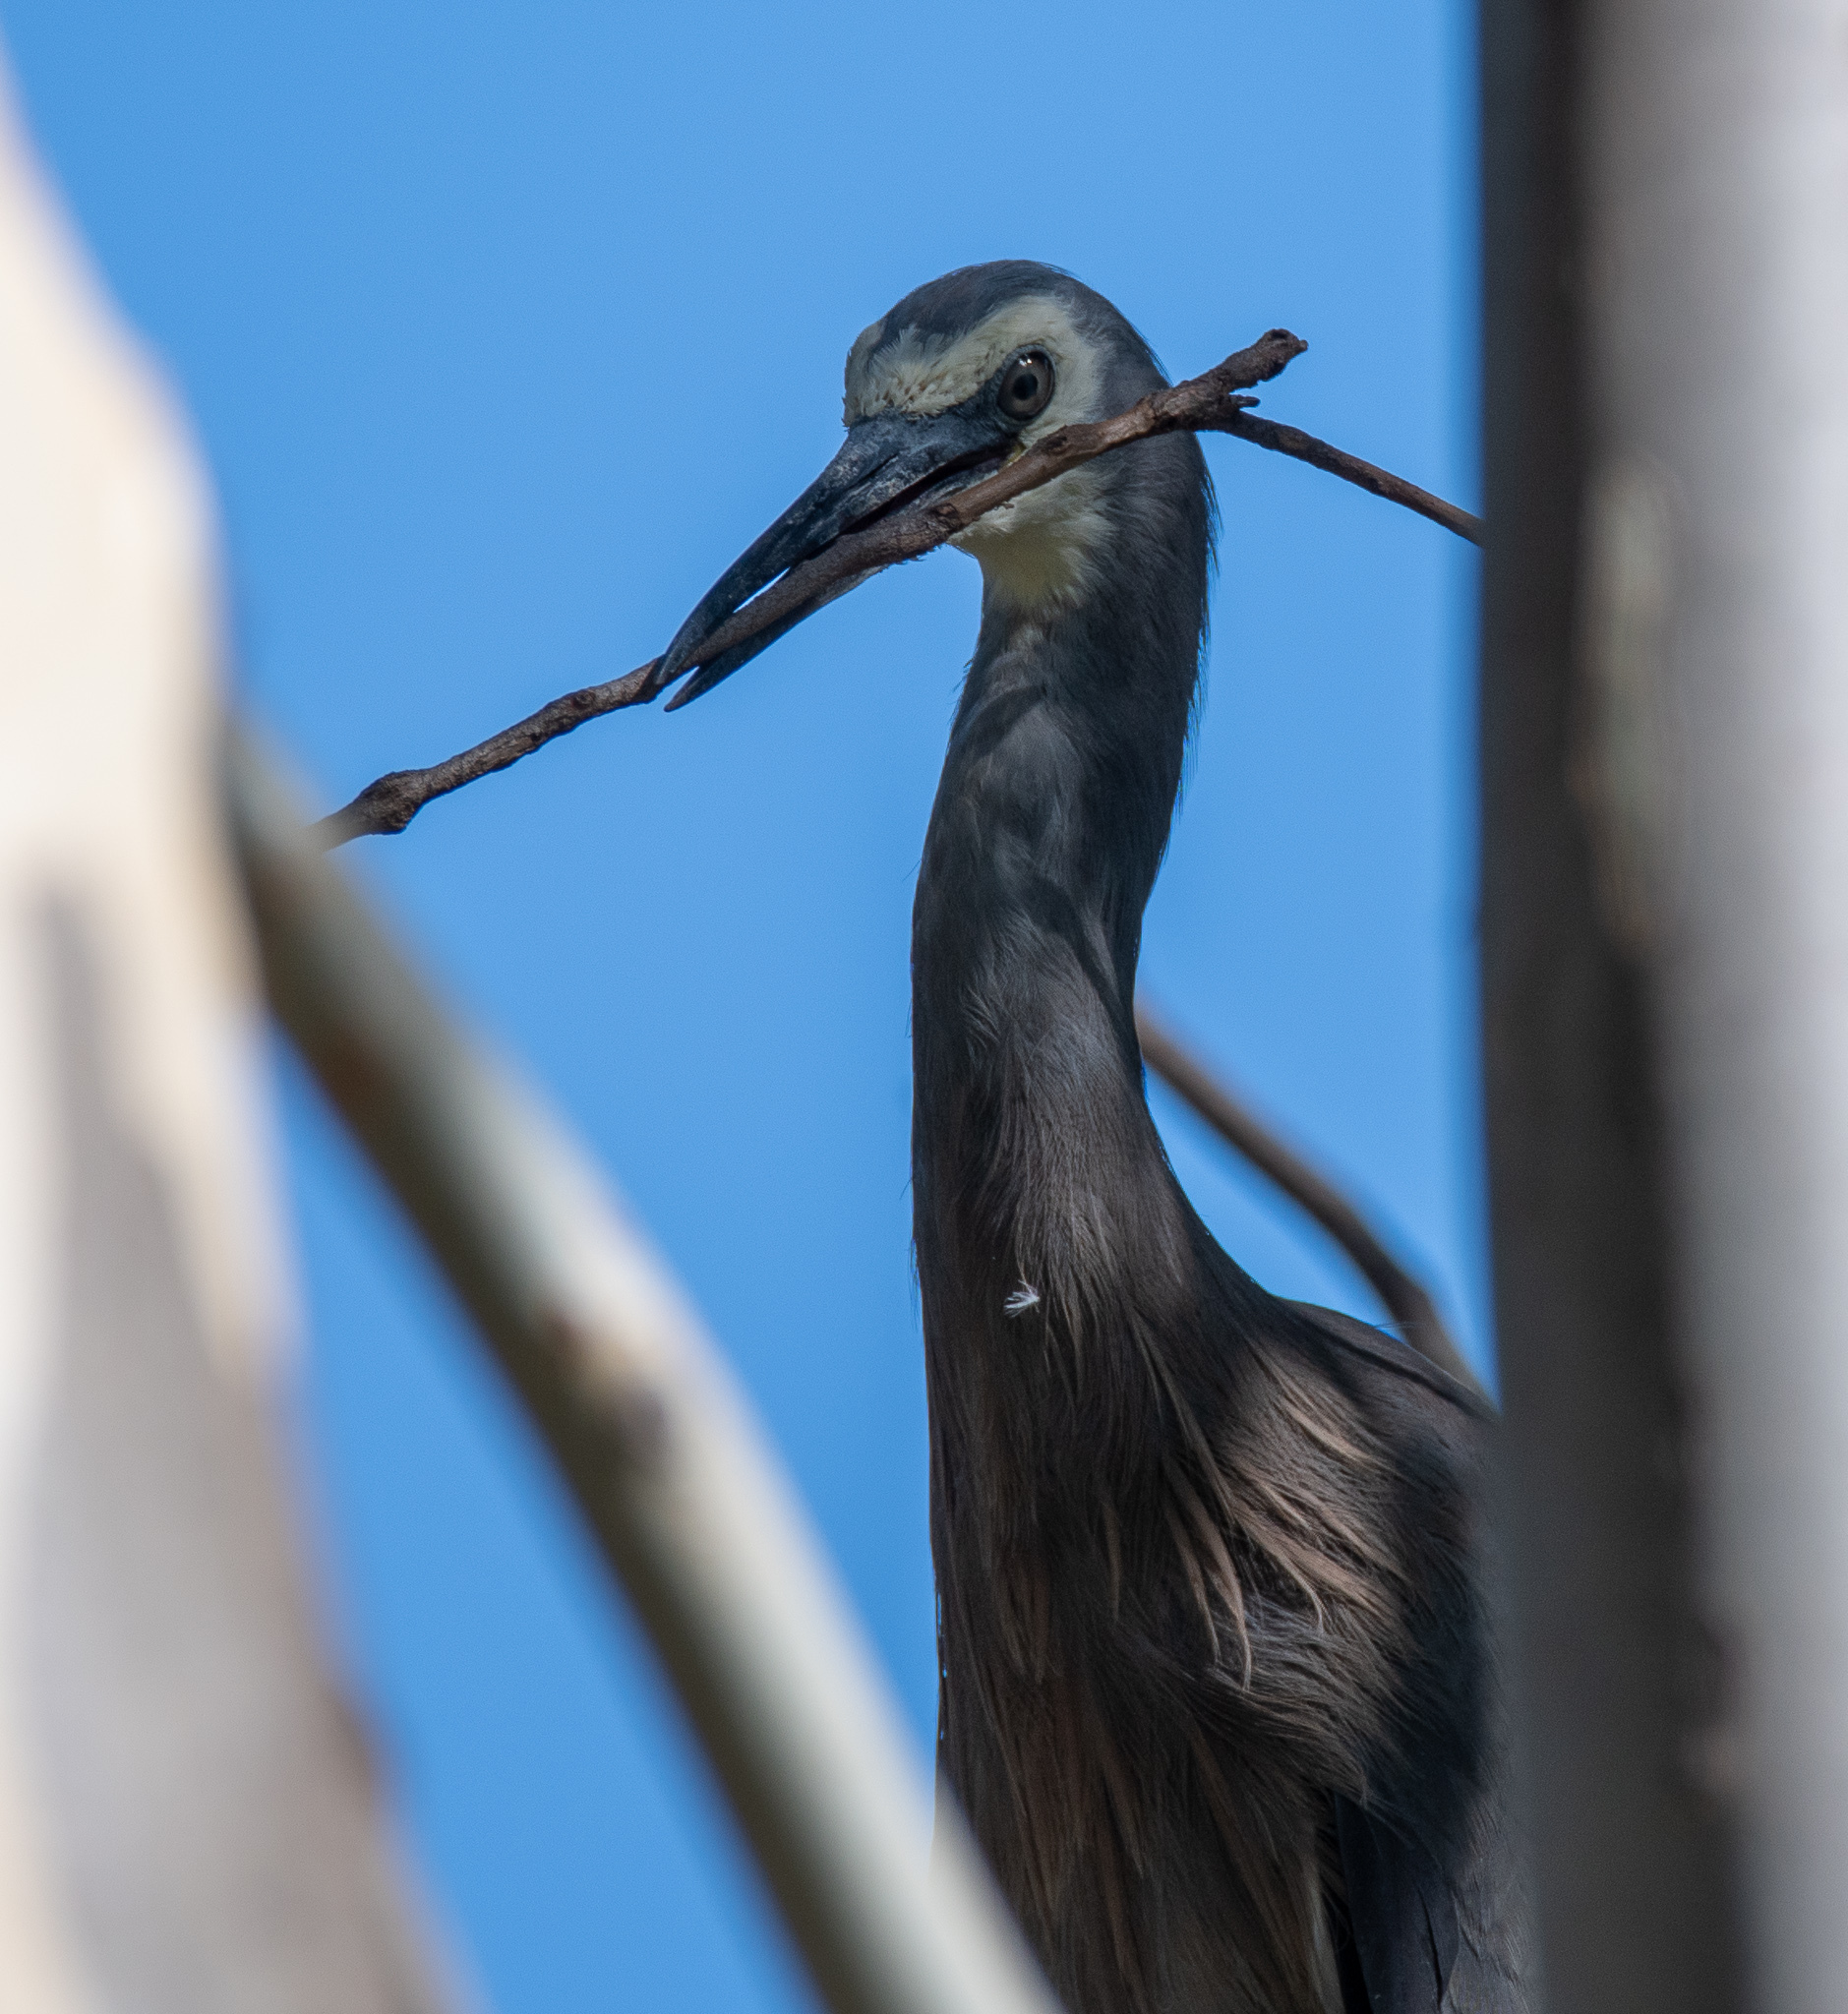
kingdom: Animalia
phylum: Chordata
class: Aves
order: Pelecaniformes
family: Ardeidae
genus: Egretta
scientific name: Egretta novaehollandiae
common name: White-faced heron
